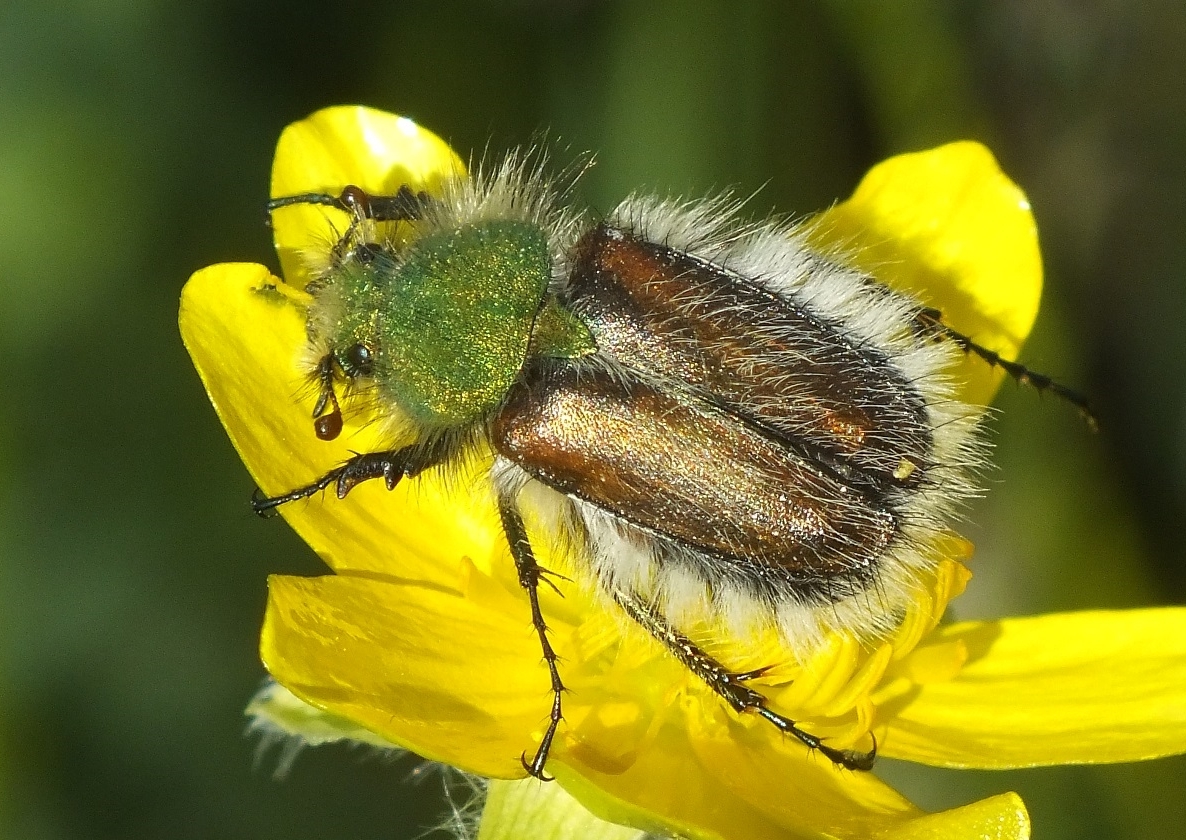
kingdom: Animalia
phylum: Arthropoda
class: Insecta
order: Coleoptera
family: Glaphyridae
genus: Pygopleurus
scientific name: Pygopleurus vulpes
